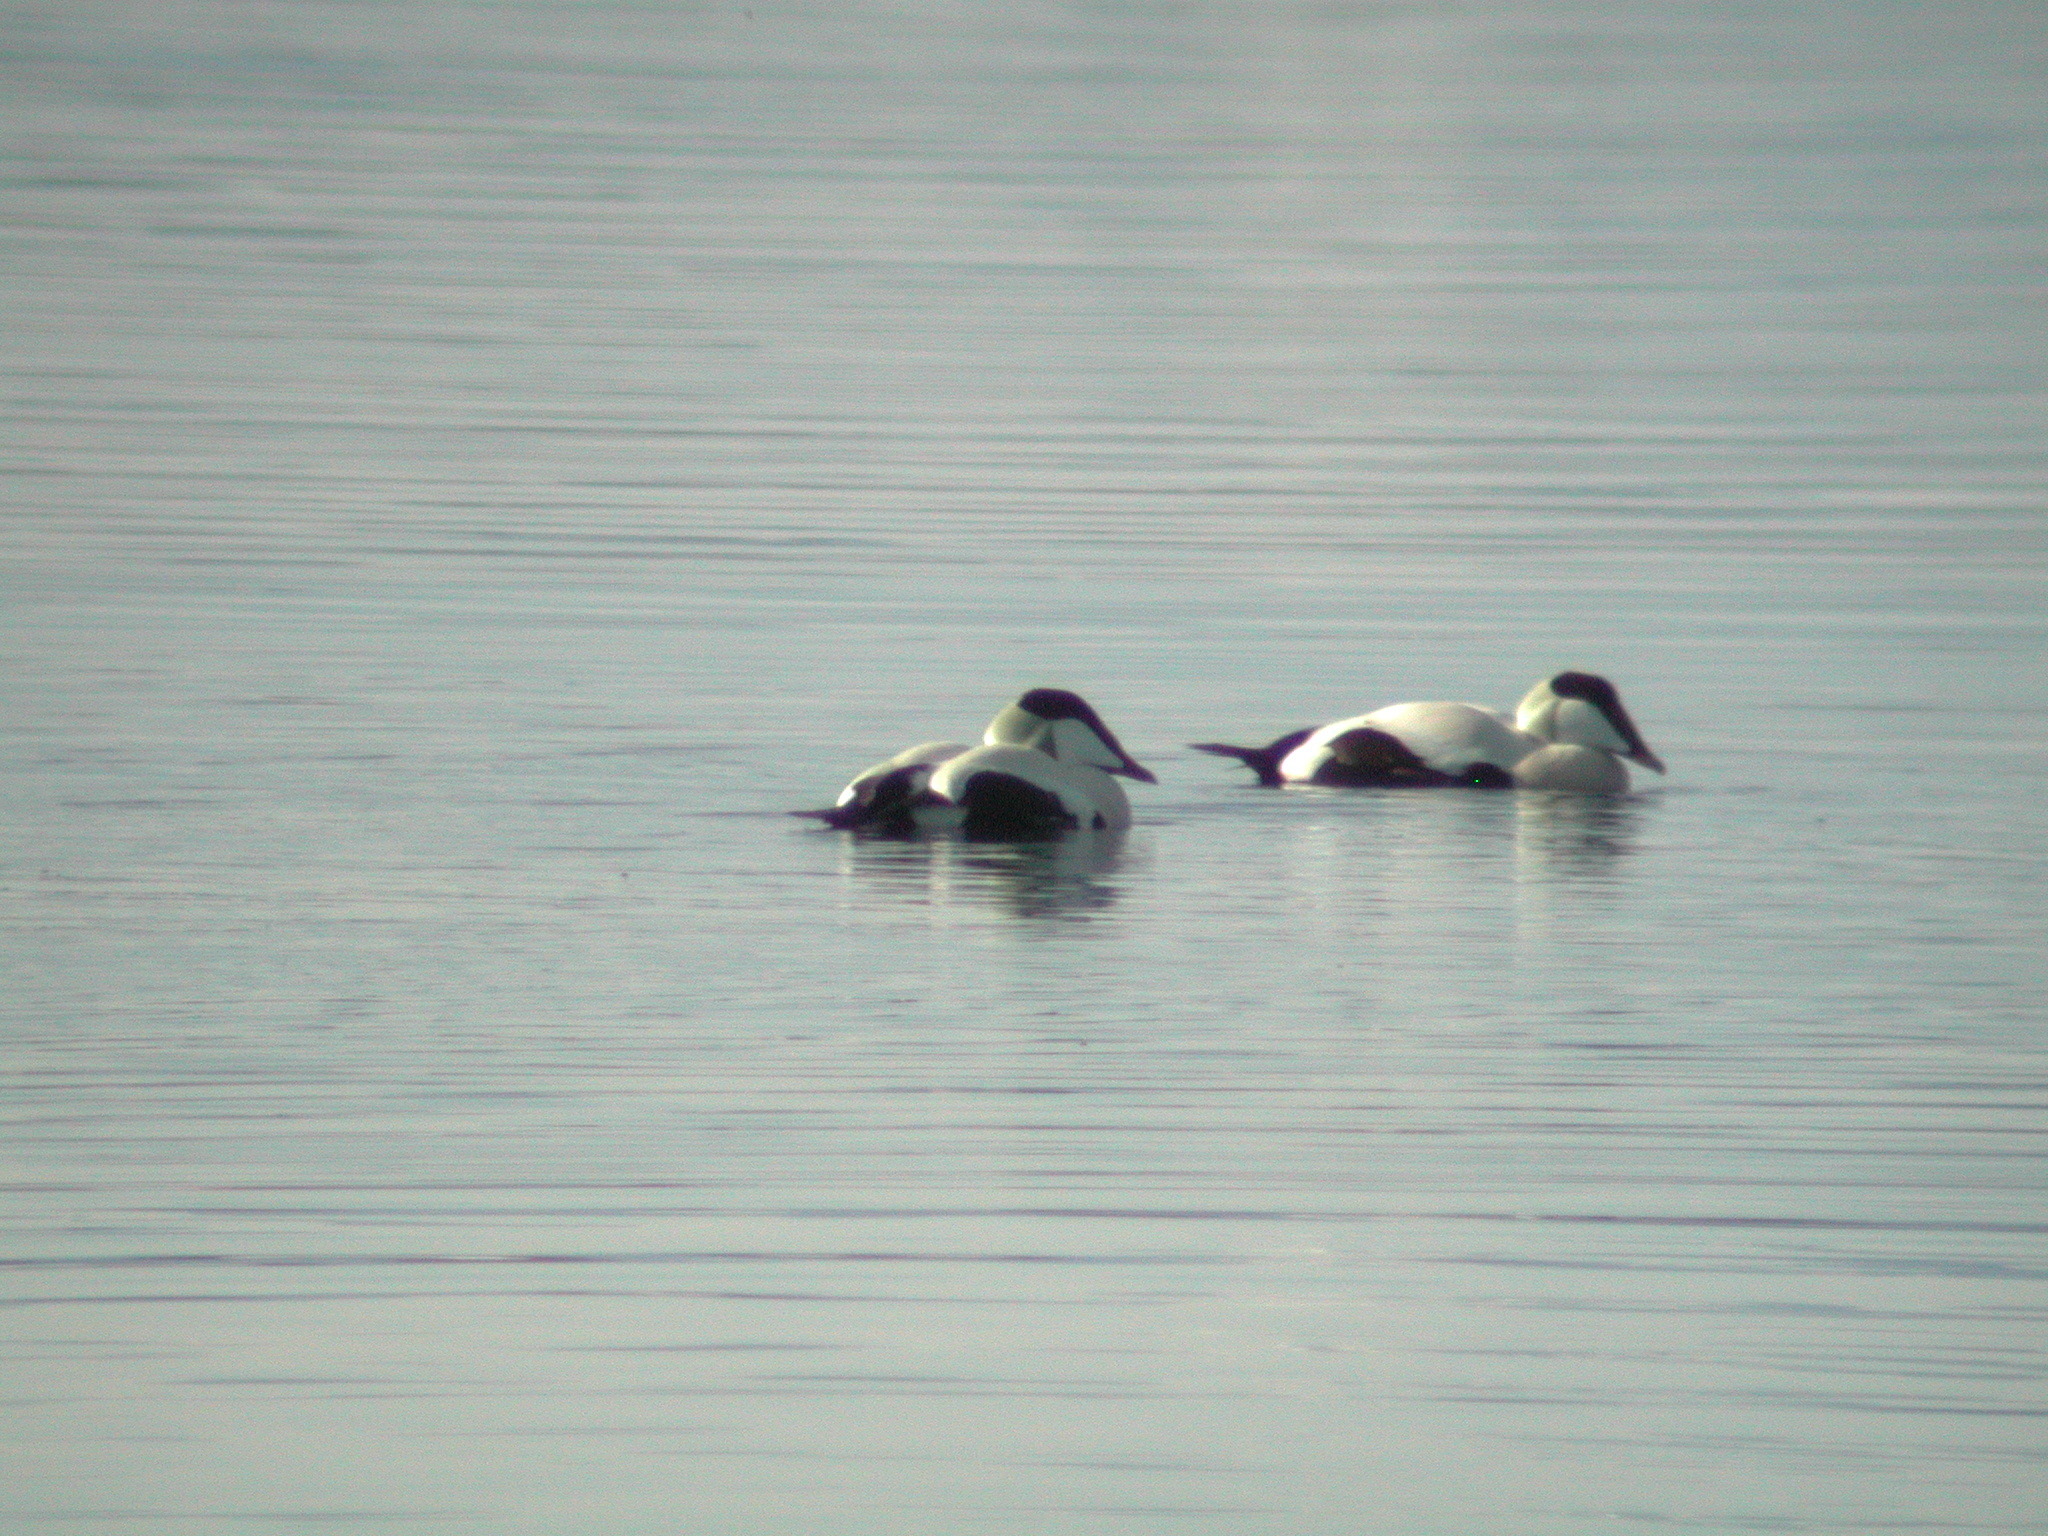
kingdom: Animalia
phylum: Chordata
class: Aves
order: Anseriformes
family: Anatidae
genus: Somateria
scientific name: Somateria mollissima
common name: Common eider
